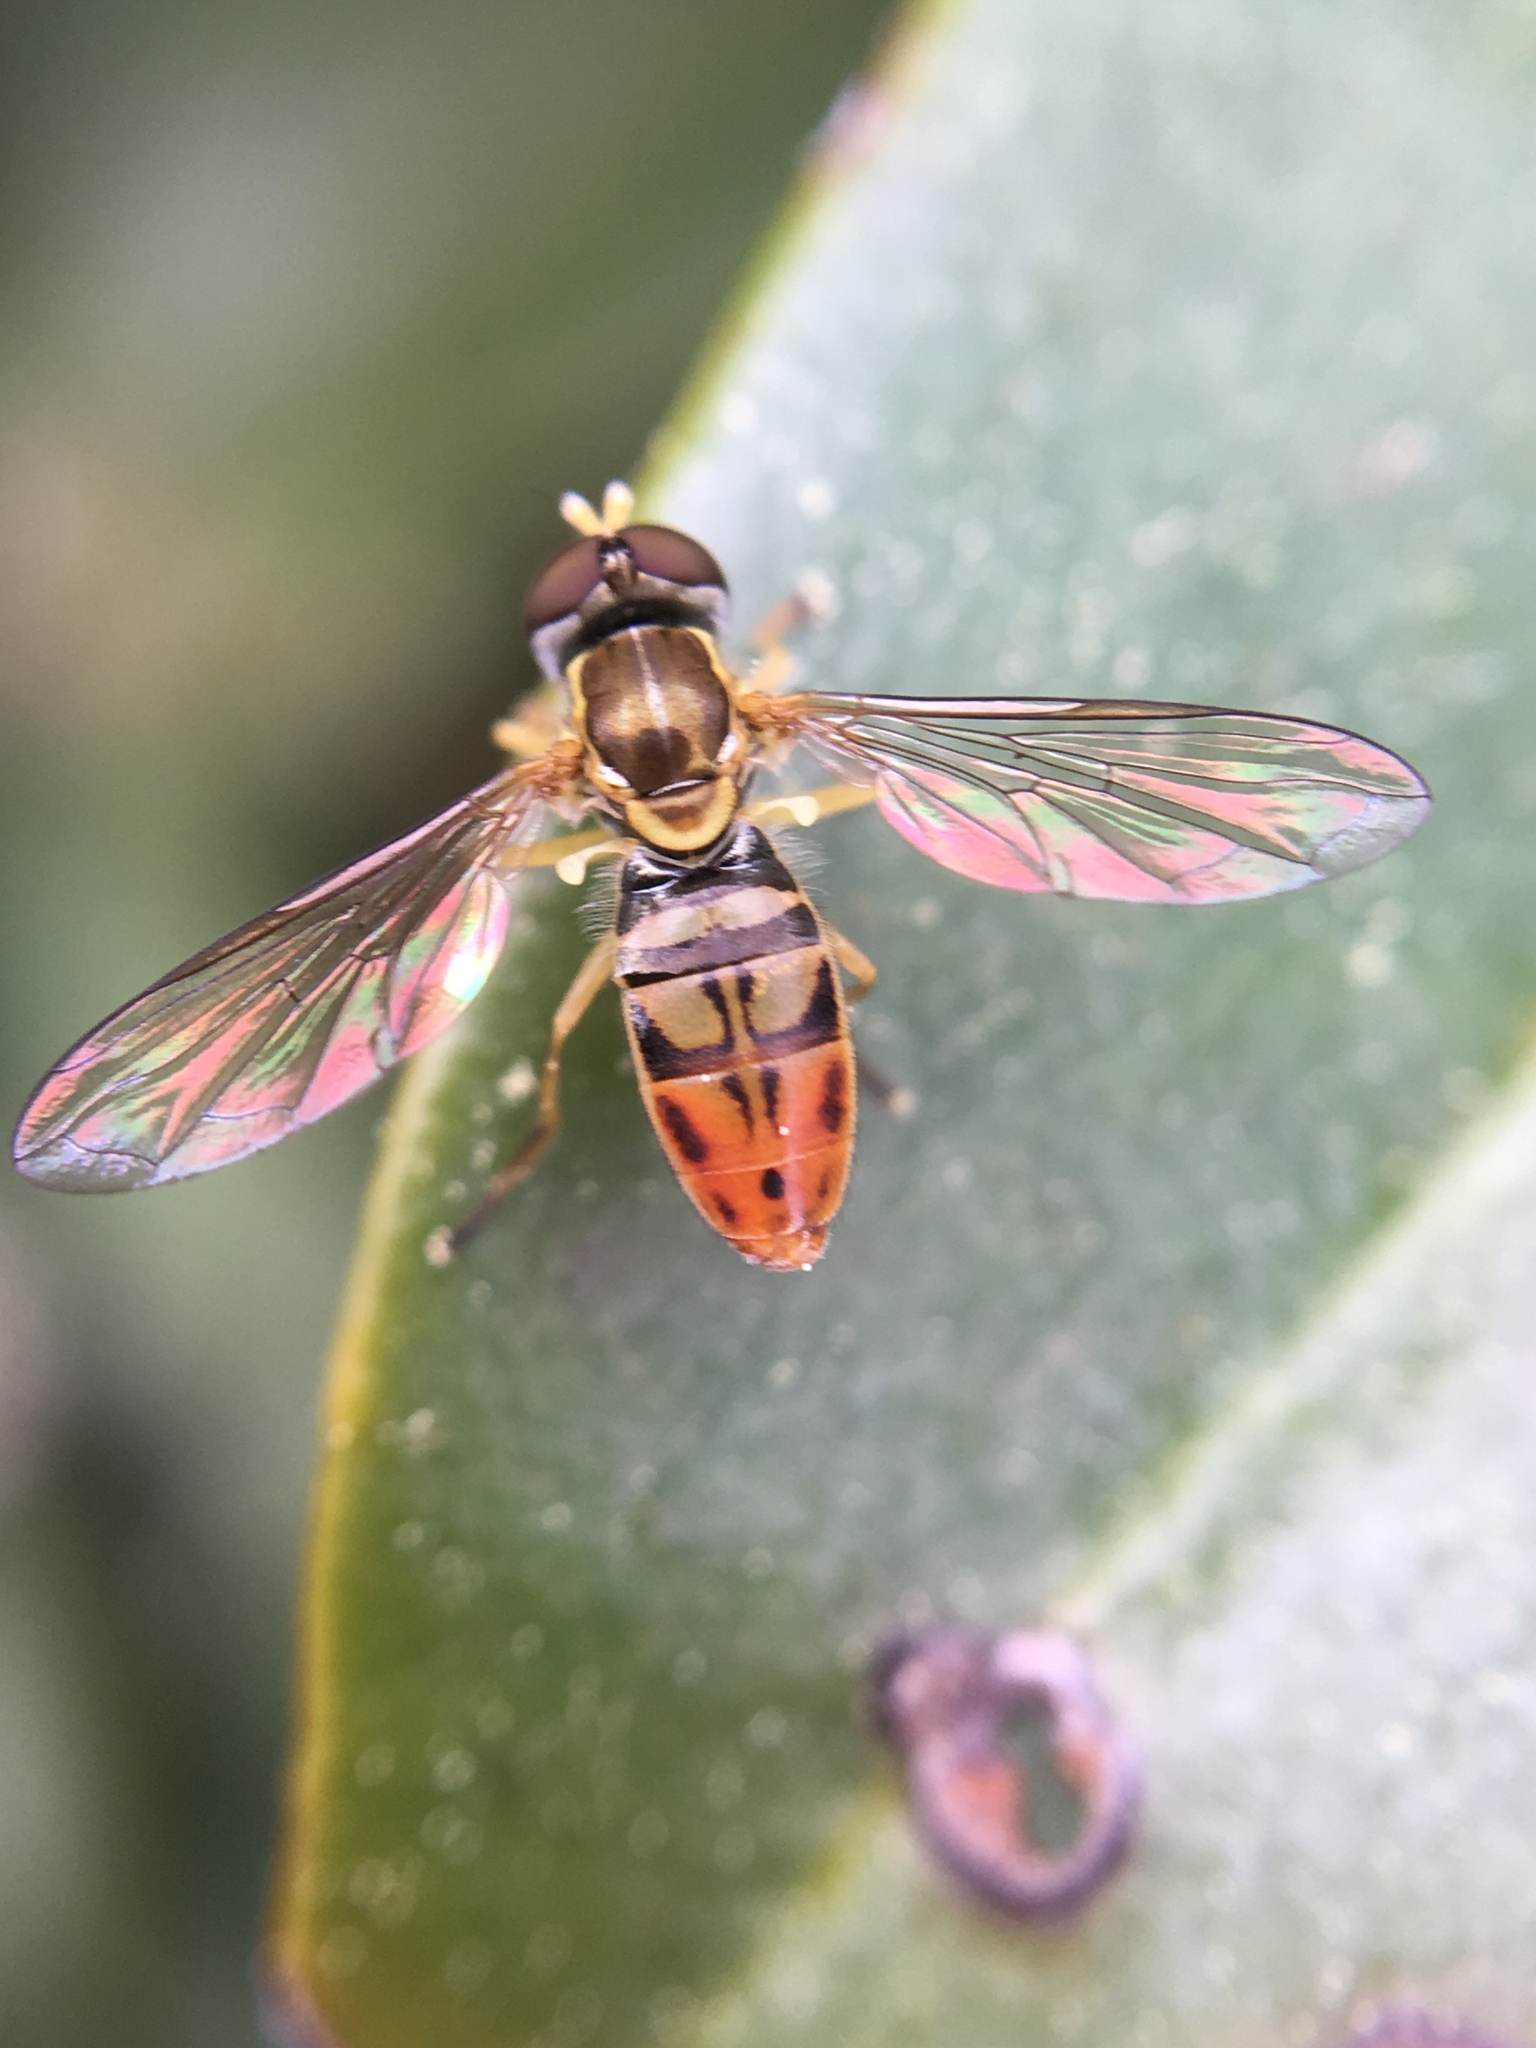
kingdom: Animalia
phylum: Arthropoda
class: Insecta
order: Diptera
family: Syrphidae
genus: Toxomerus
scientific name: Toxomerus marginatus
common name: Syrphid fly
